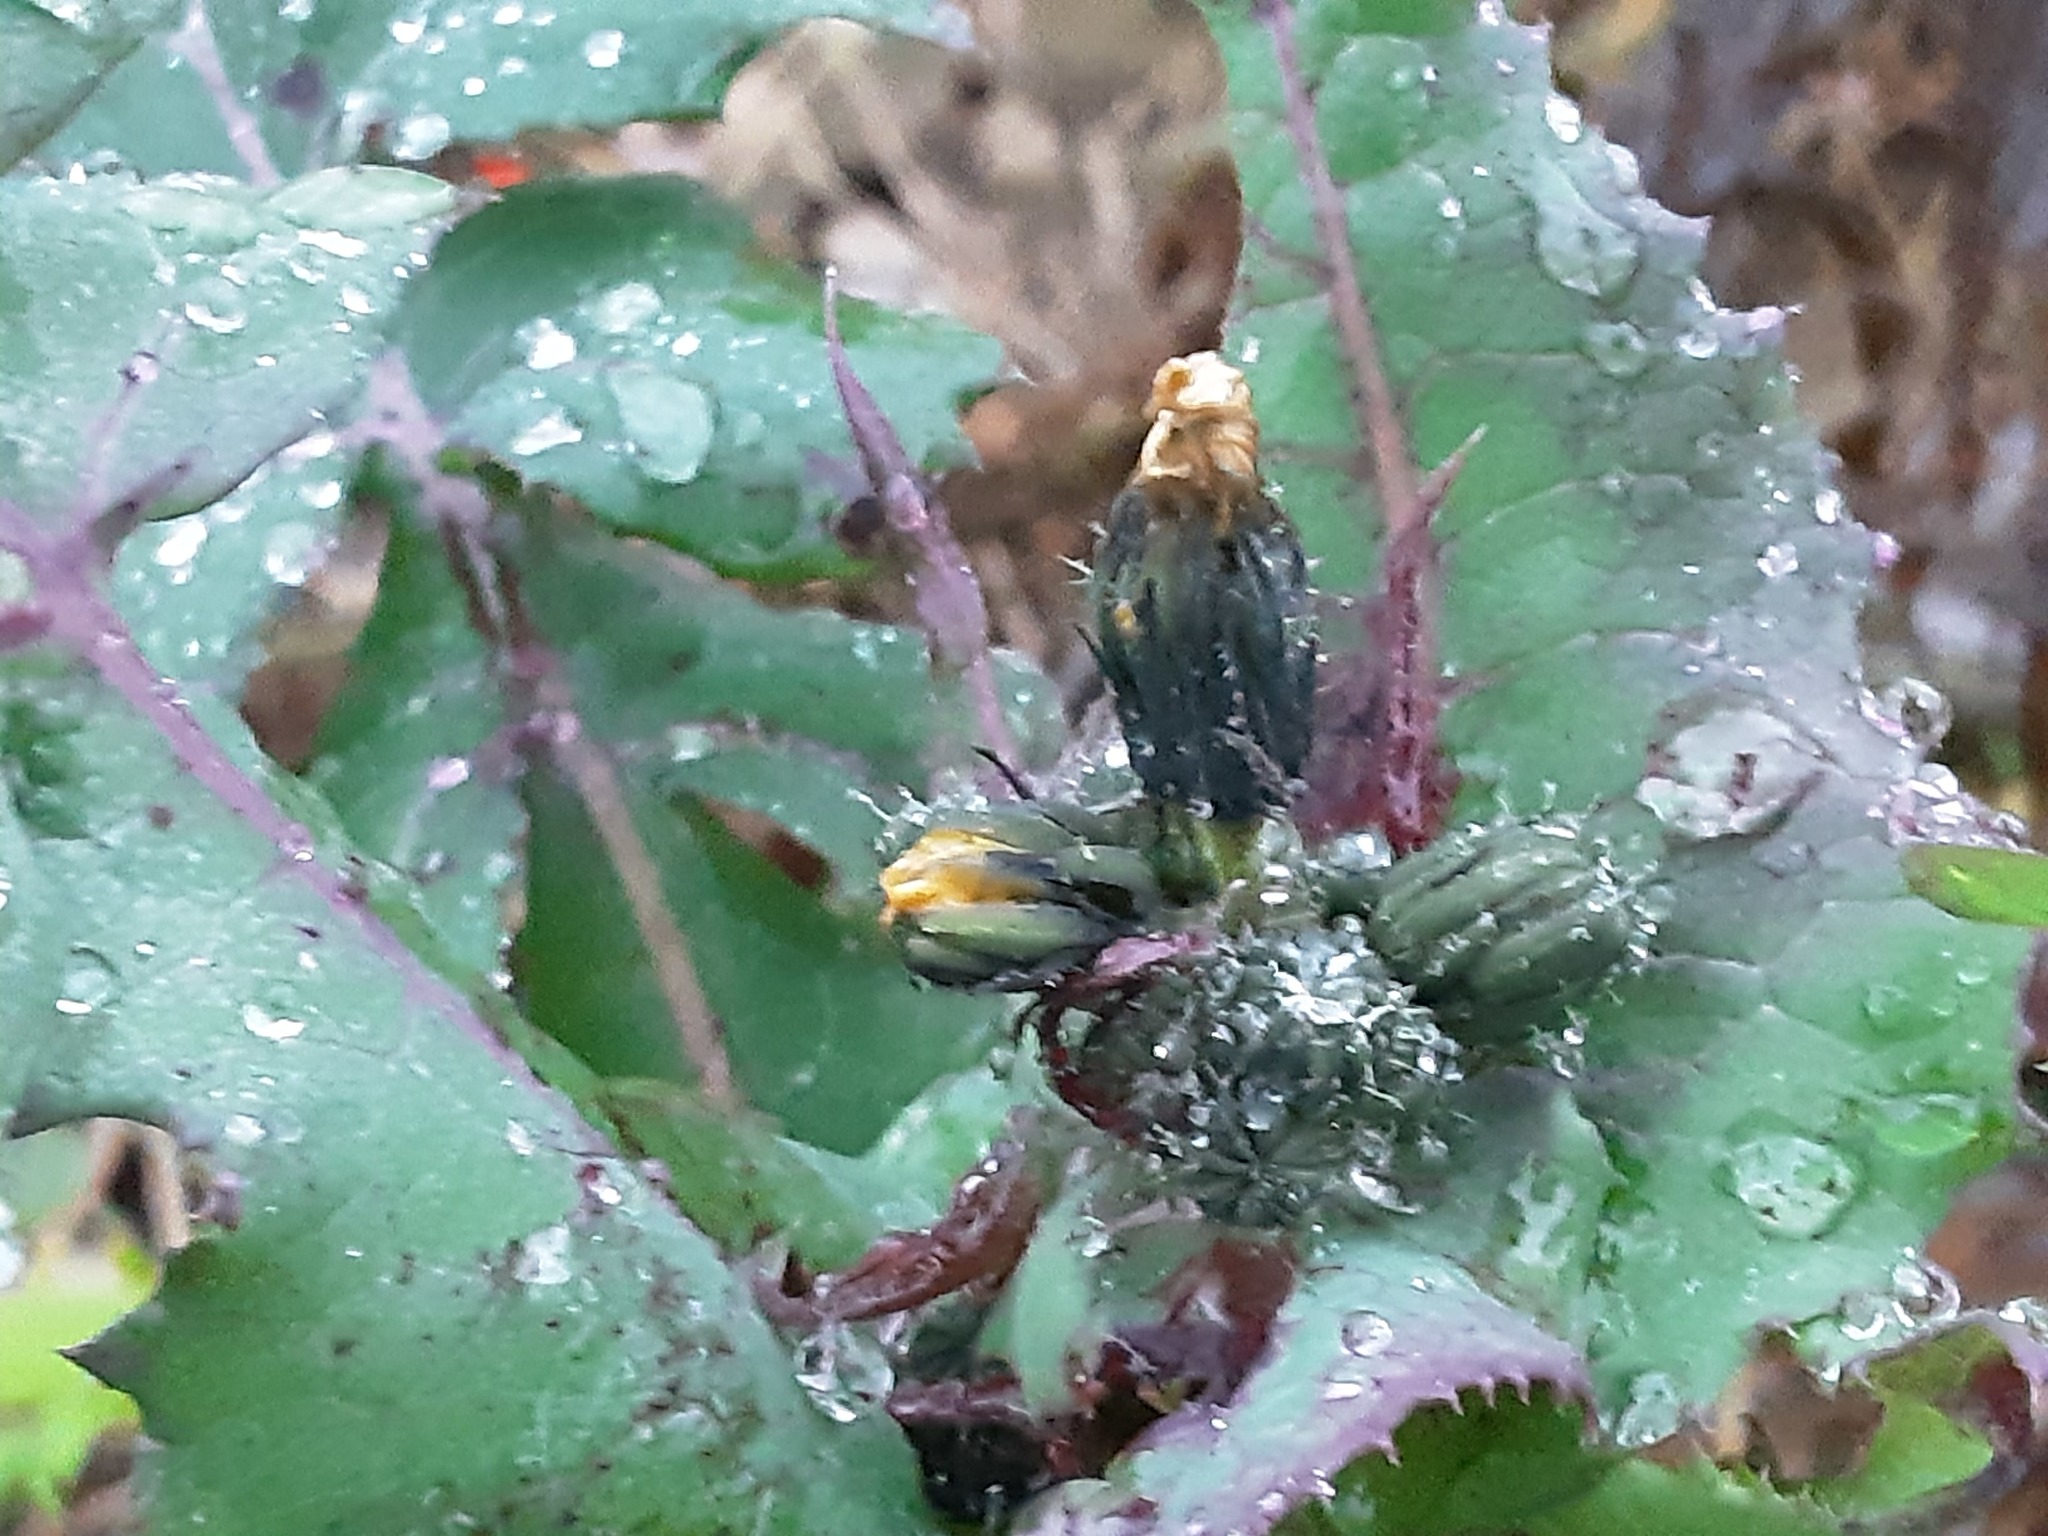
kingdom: Plantae
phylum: Tracheophyta
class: Magnoliopsida
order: Asterales
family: Asteraceae
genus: Sonchus
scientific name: Sonchus oleraceus
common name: Common sowthistle
